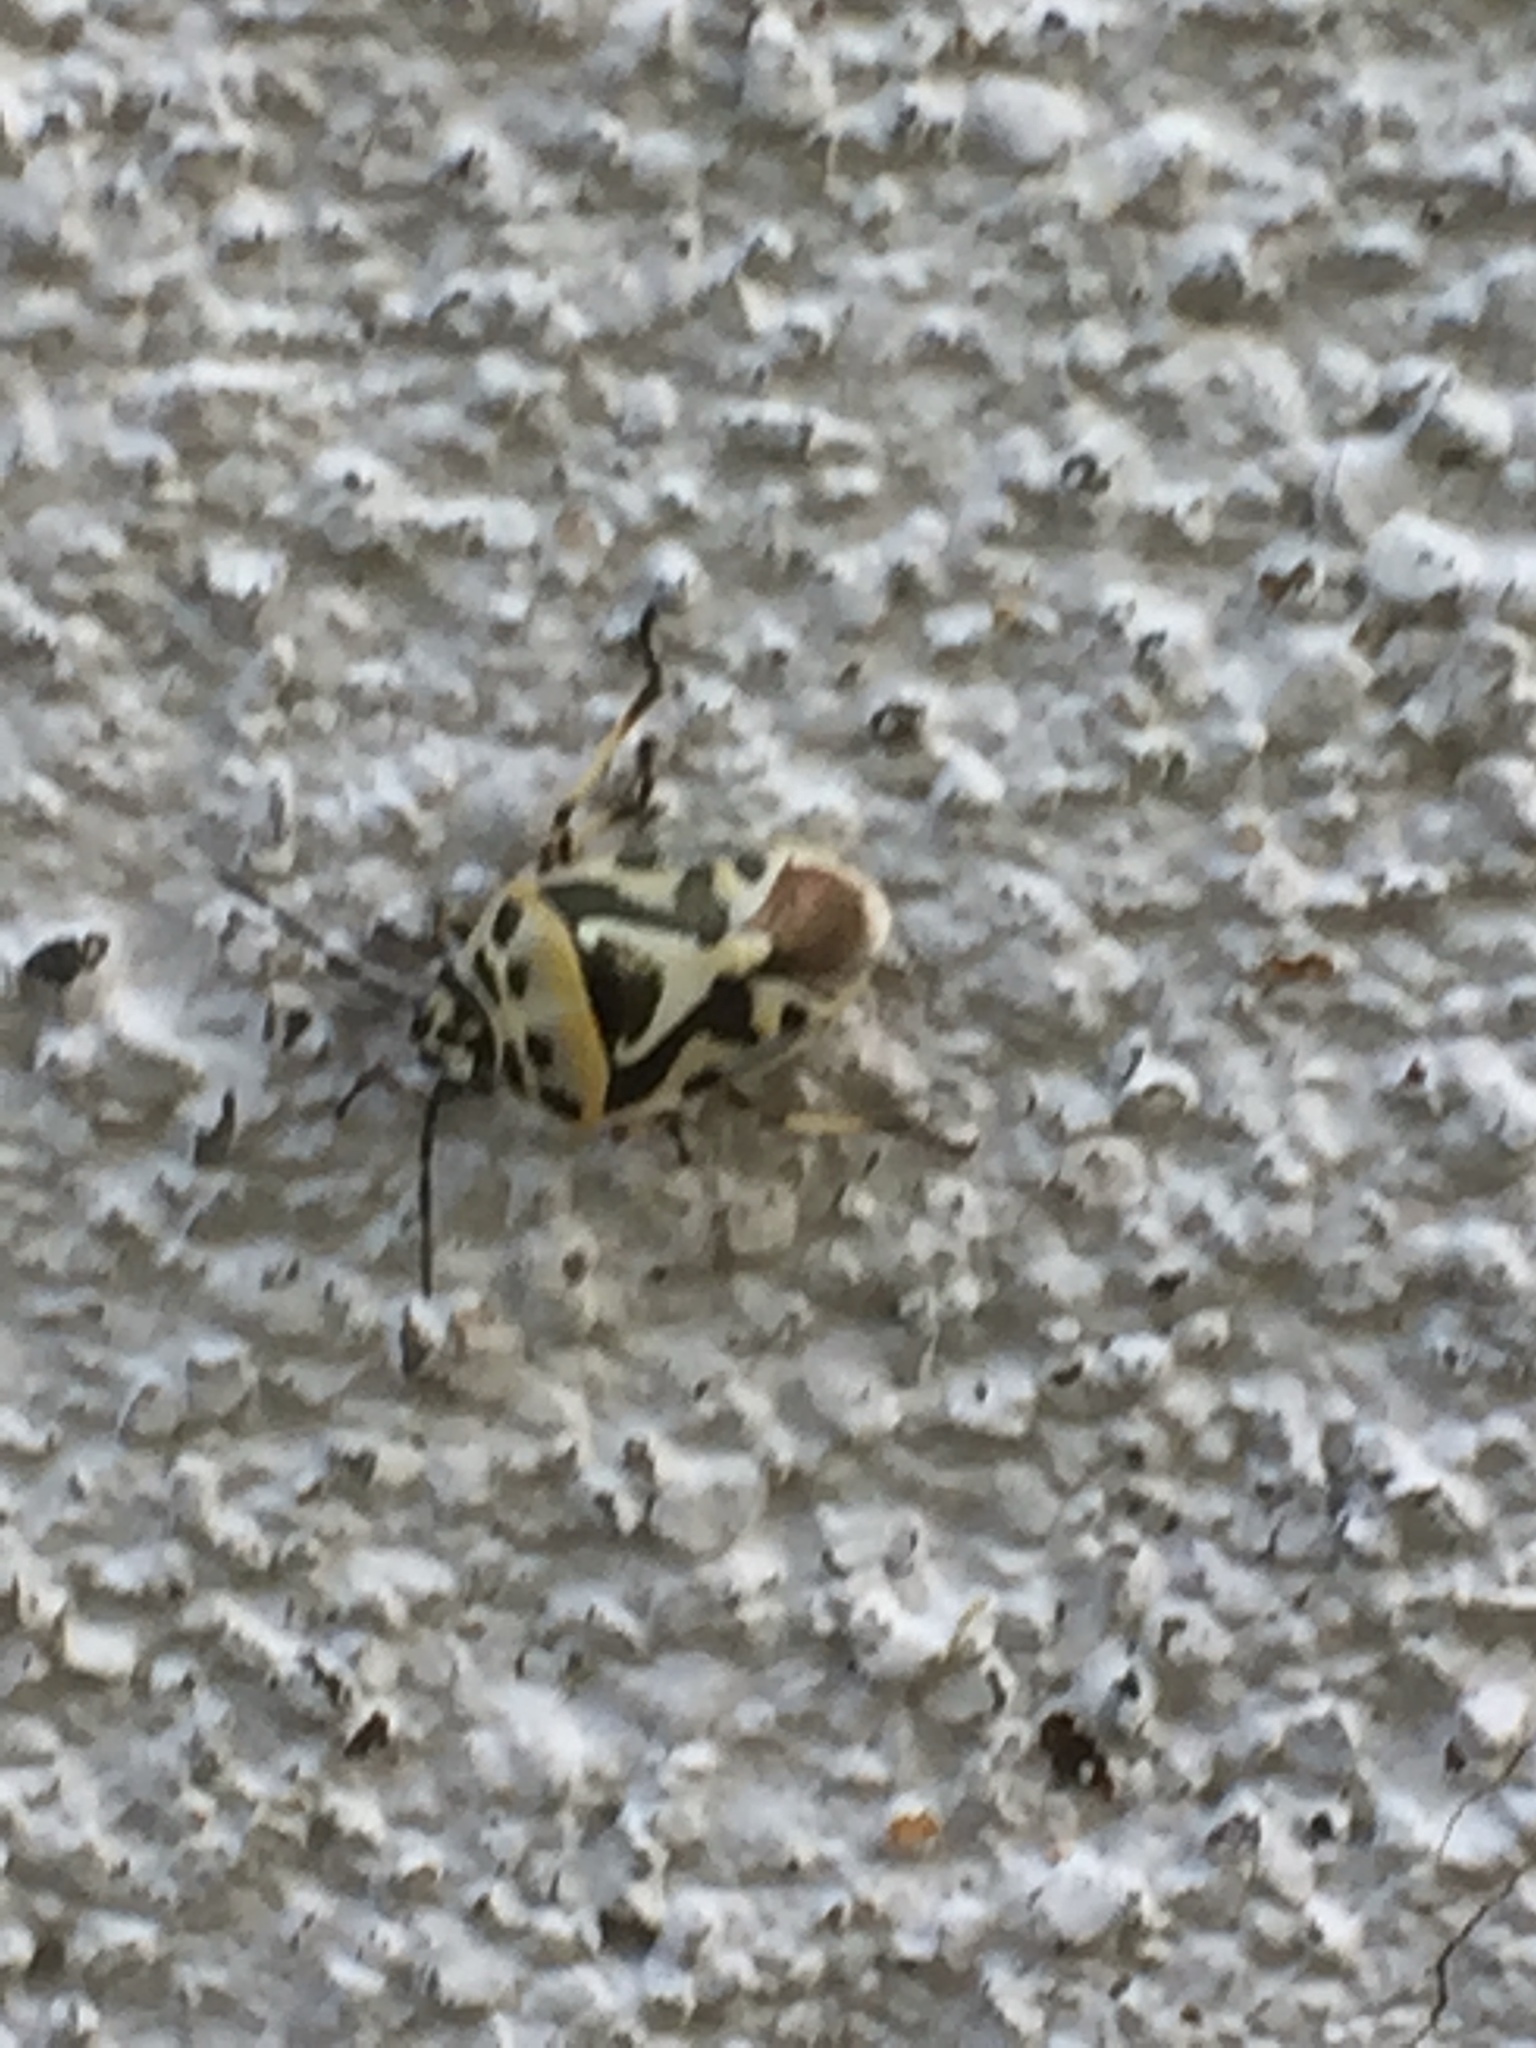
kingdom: Animalia
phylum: Arthropoda
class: Insecta
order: Hemiptera
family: Pentatomidae
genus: Eurydema
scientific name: Eurydema ornata
